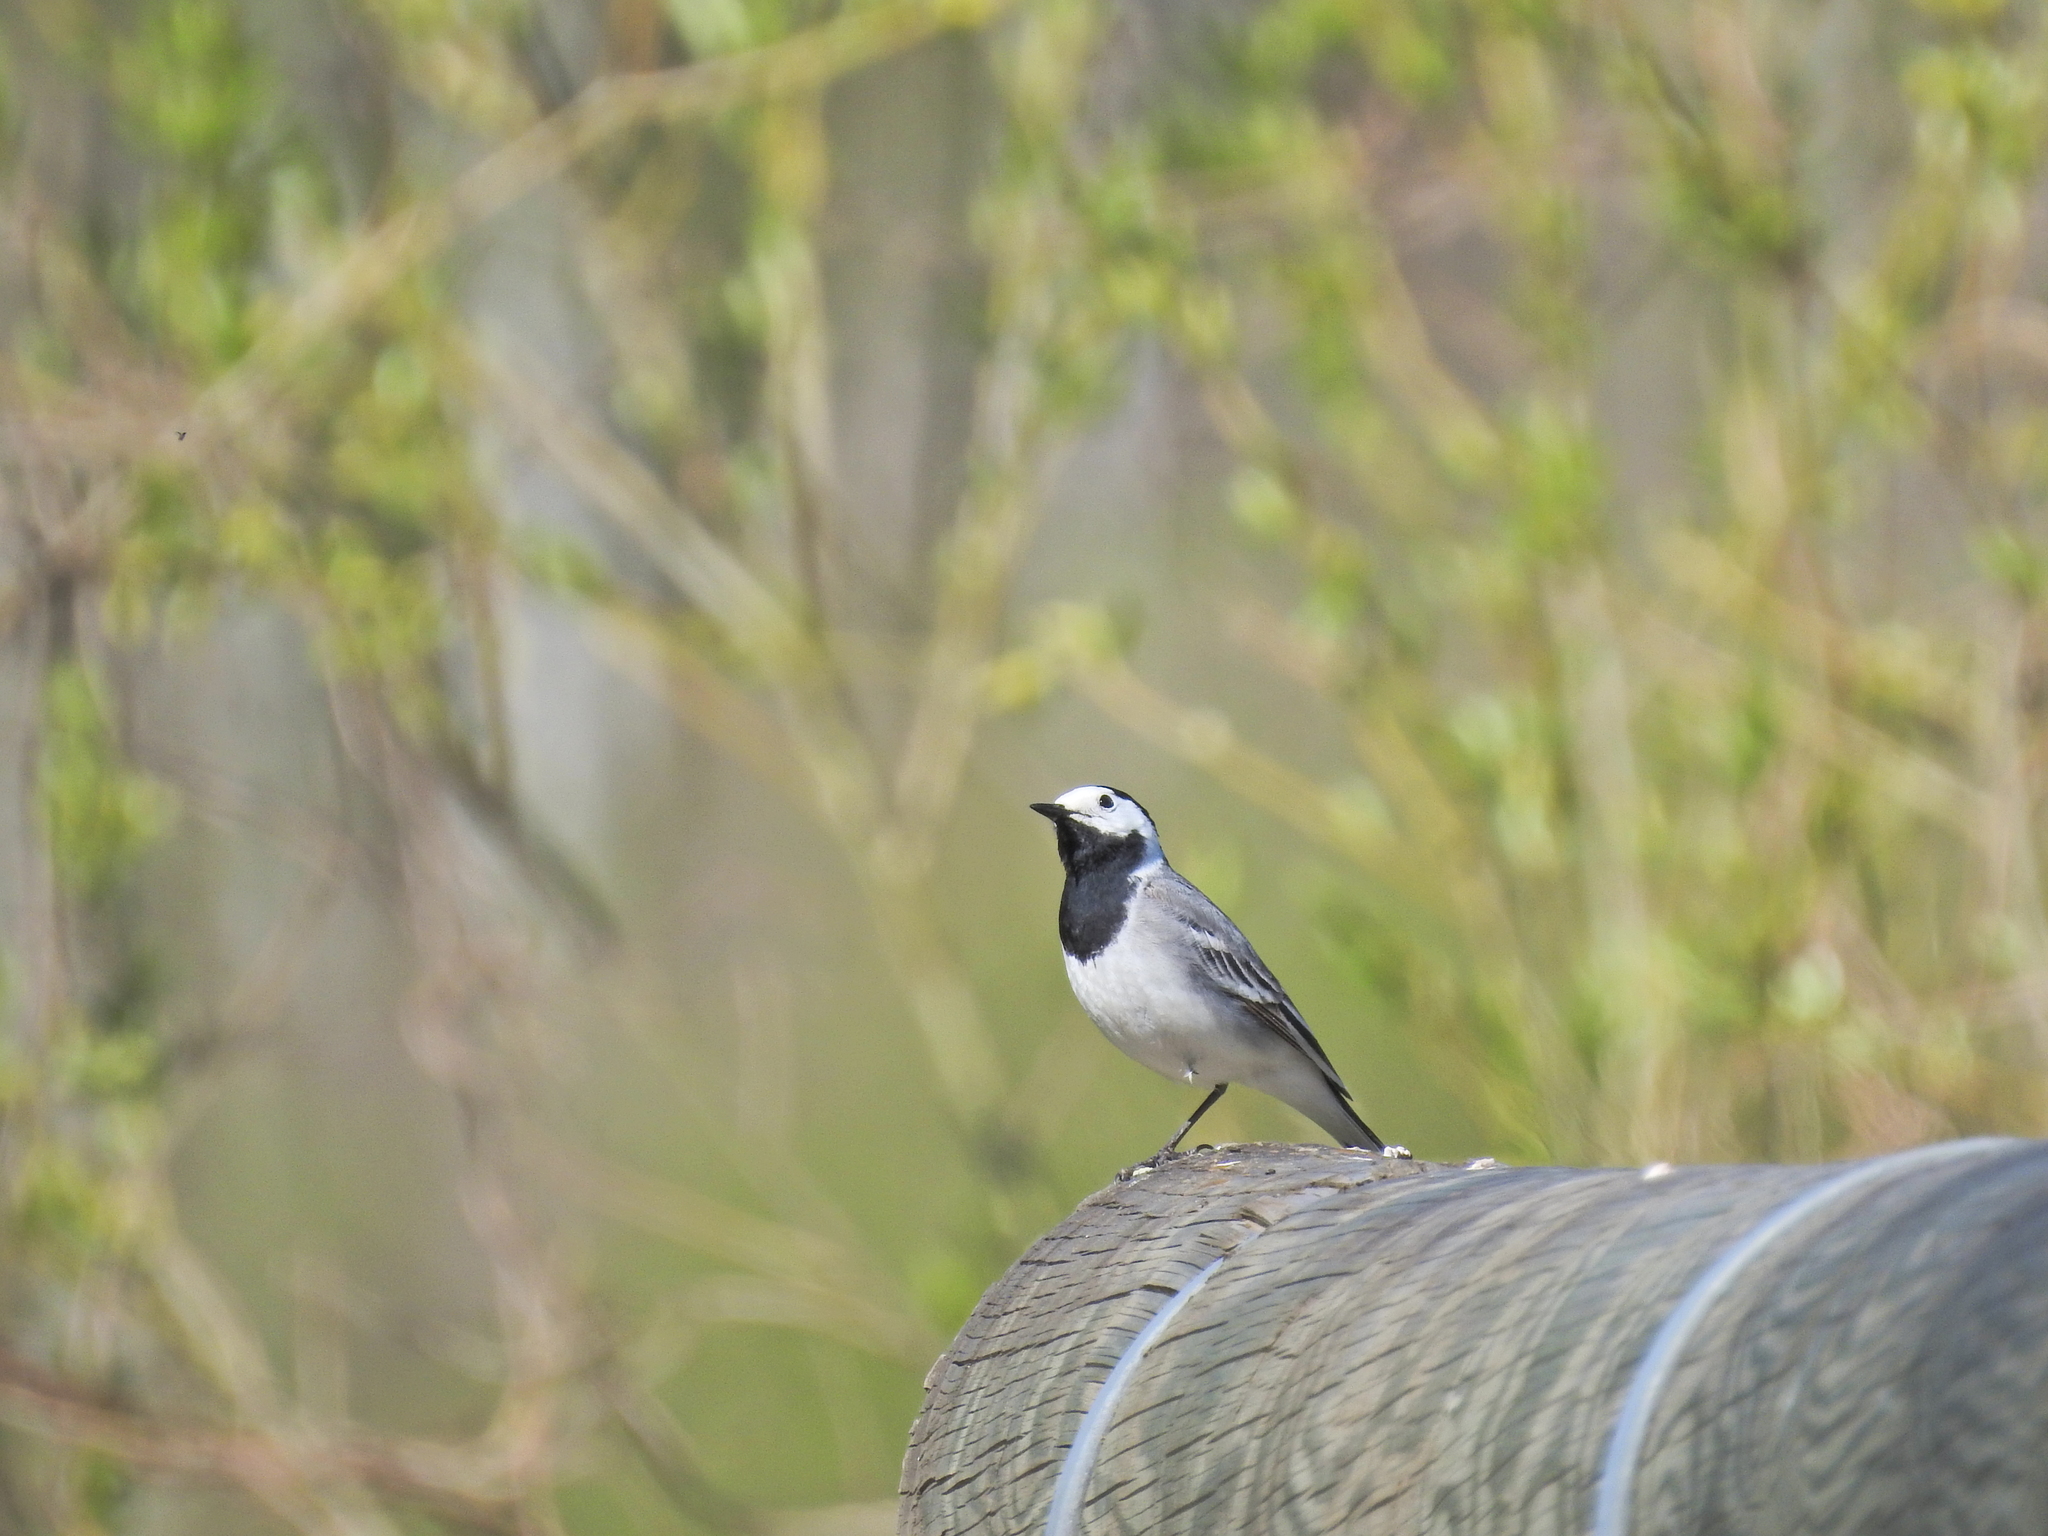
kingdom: Animalia
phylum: Chordata
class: Aves
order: Passeriformes
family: Motacillidae
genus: Motacilla
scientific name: Motacilla alba
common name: White wagtail
